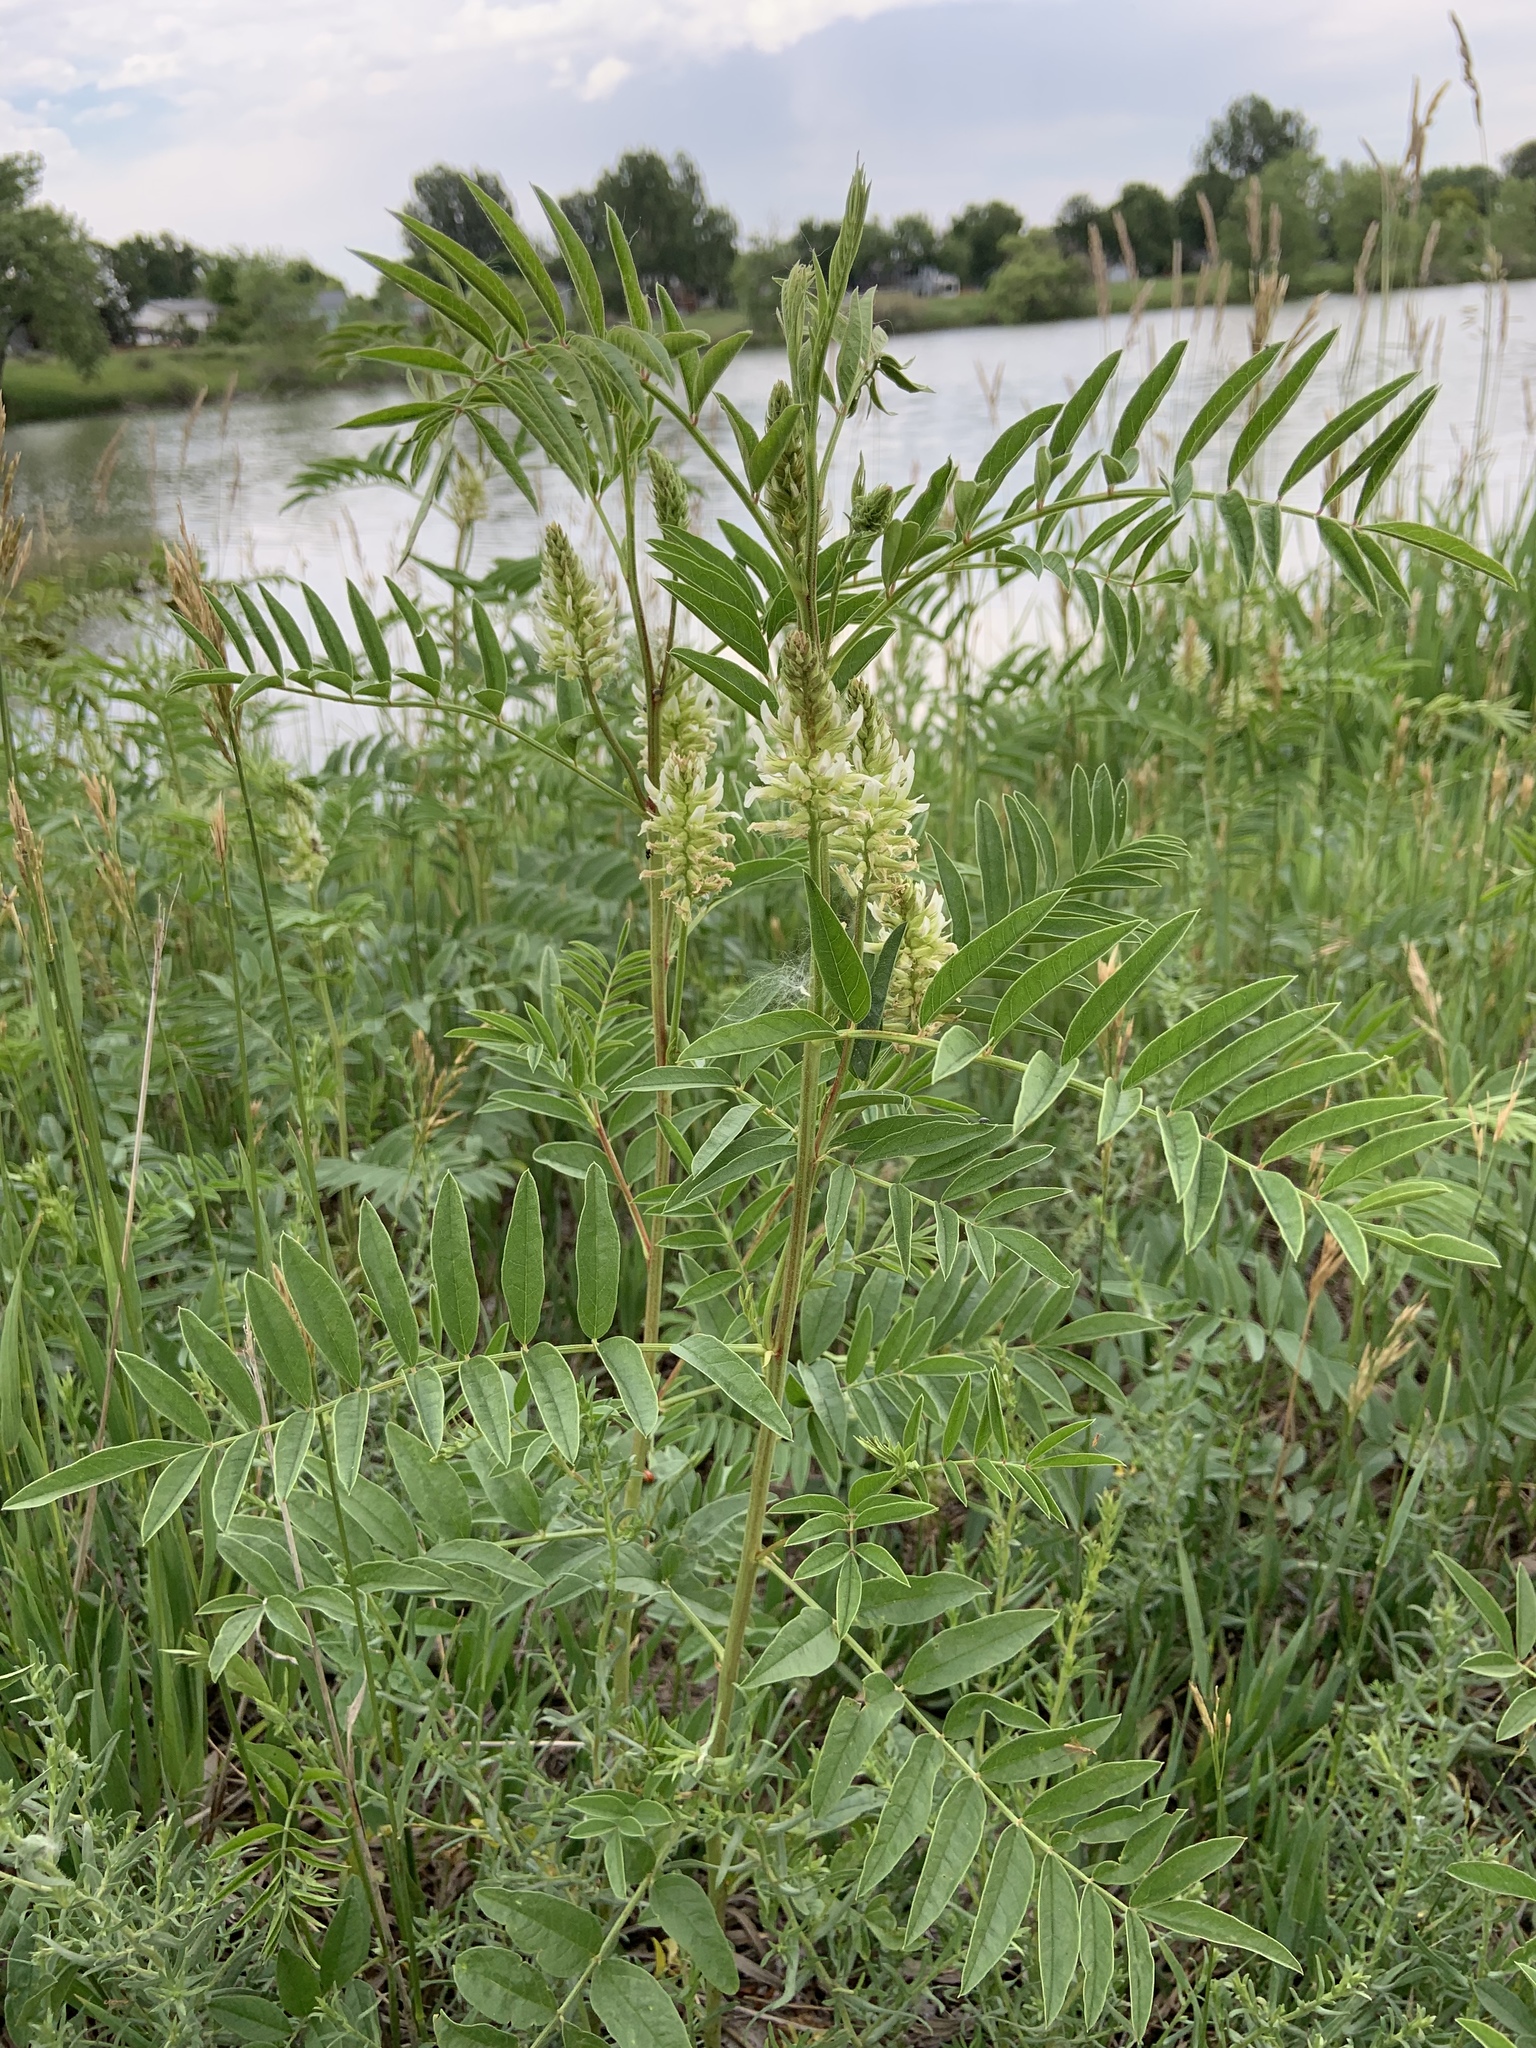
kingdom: Plantae
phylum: Tracheophyta
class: Magnoliopsida
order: Fabales
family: Fabaceae
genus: Glycyrrhiza
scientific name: Glycyrrhiza lepidota
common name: American liquorice
